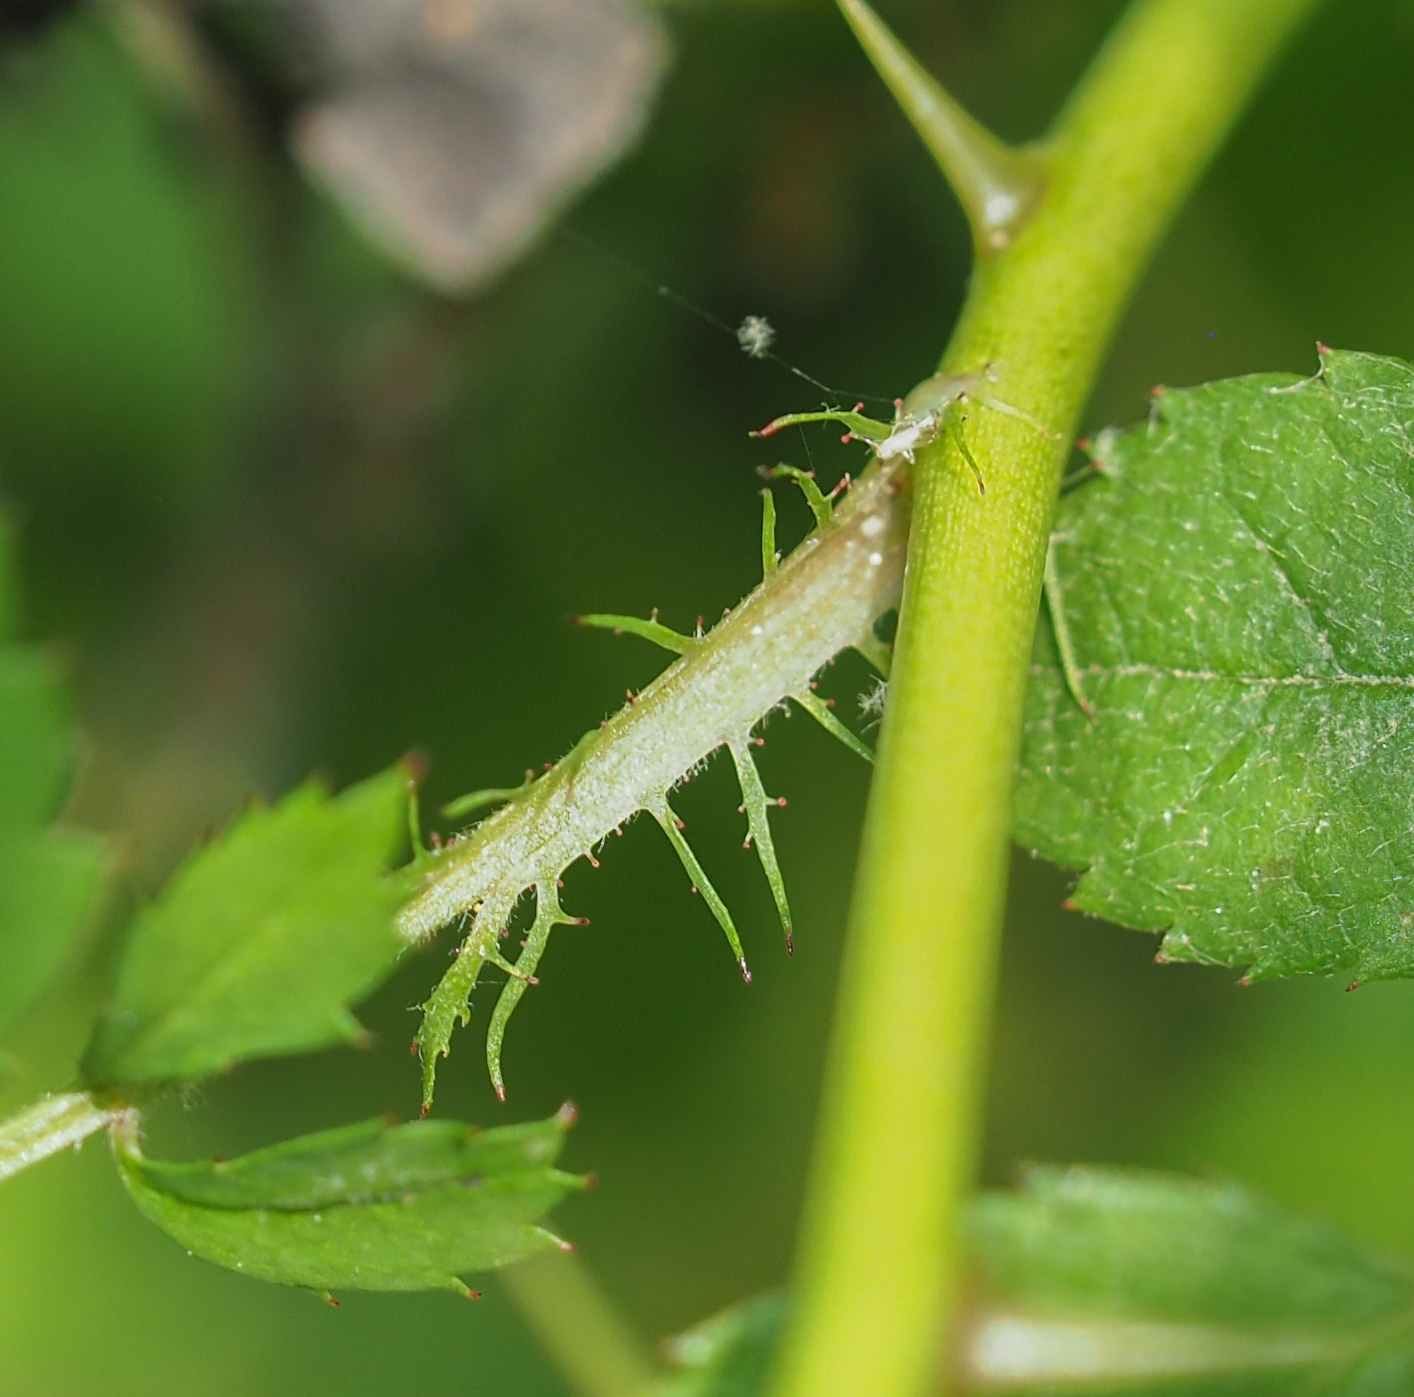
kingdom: Plantae
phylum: Tracheophyta
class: Magnoliopsida
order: Rosales
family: Rosaceae
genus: Rosa
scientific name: Rosa multiflora
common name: Multiflora rose
